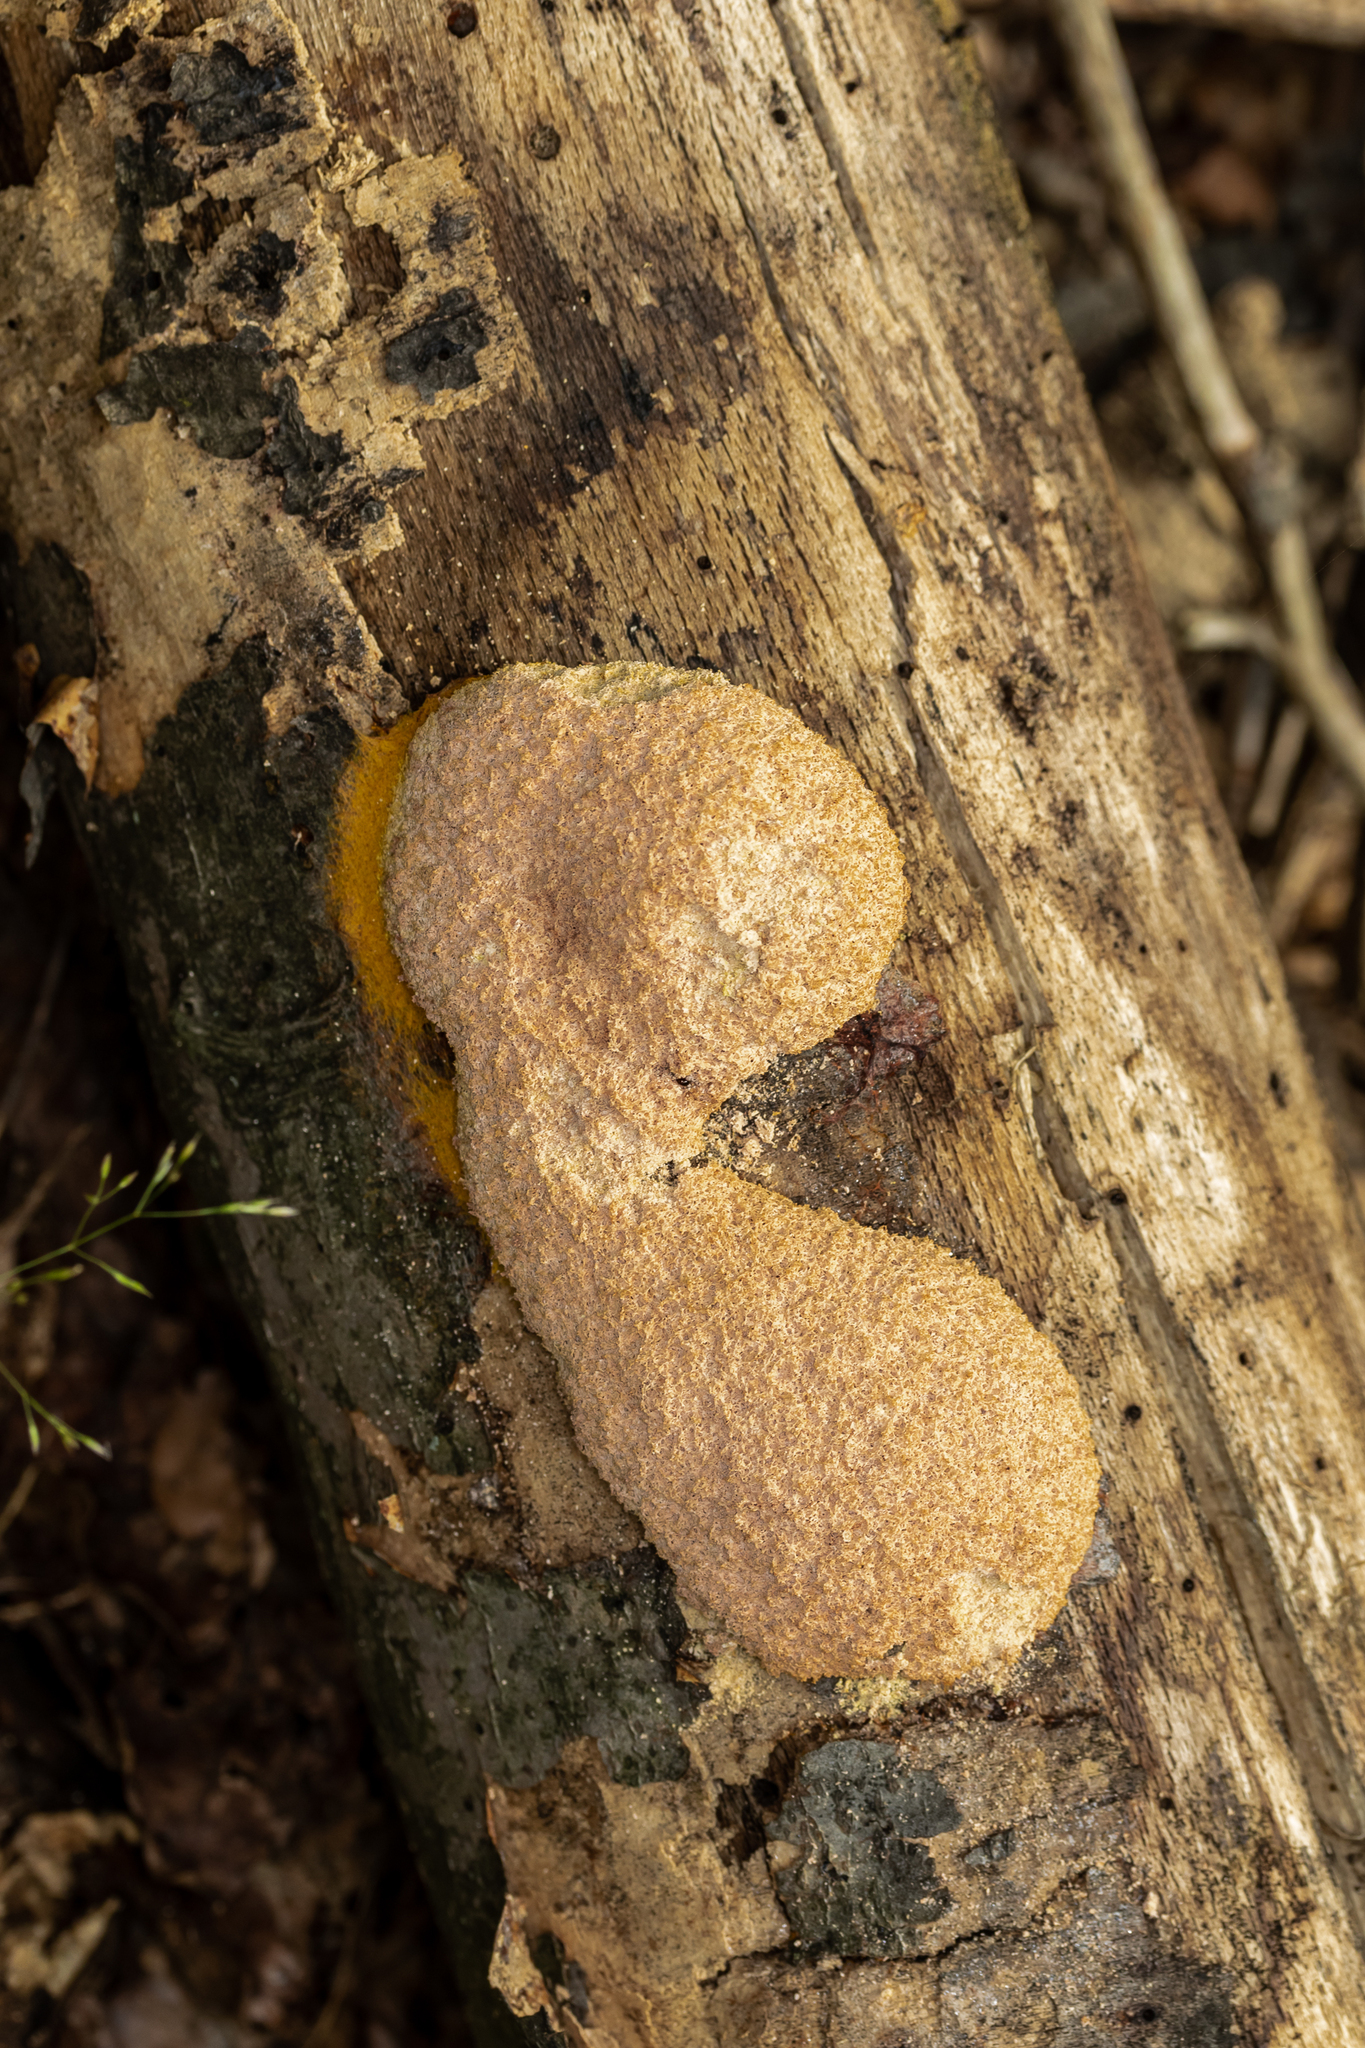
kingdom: Protozoa
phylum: Mycetozoa
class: Myxomycetes
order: Physarales
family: Physaraceae
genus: Fuligo
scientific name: Fuligo septica
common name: Dog vomit slime mold
